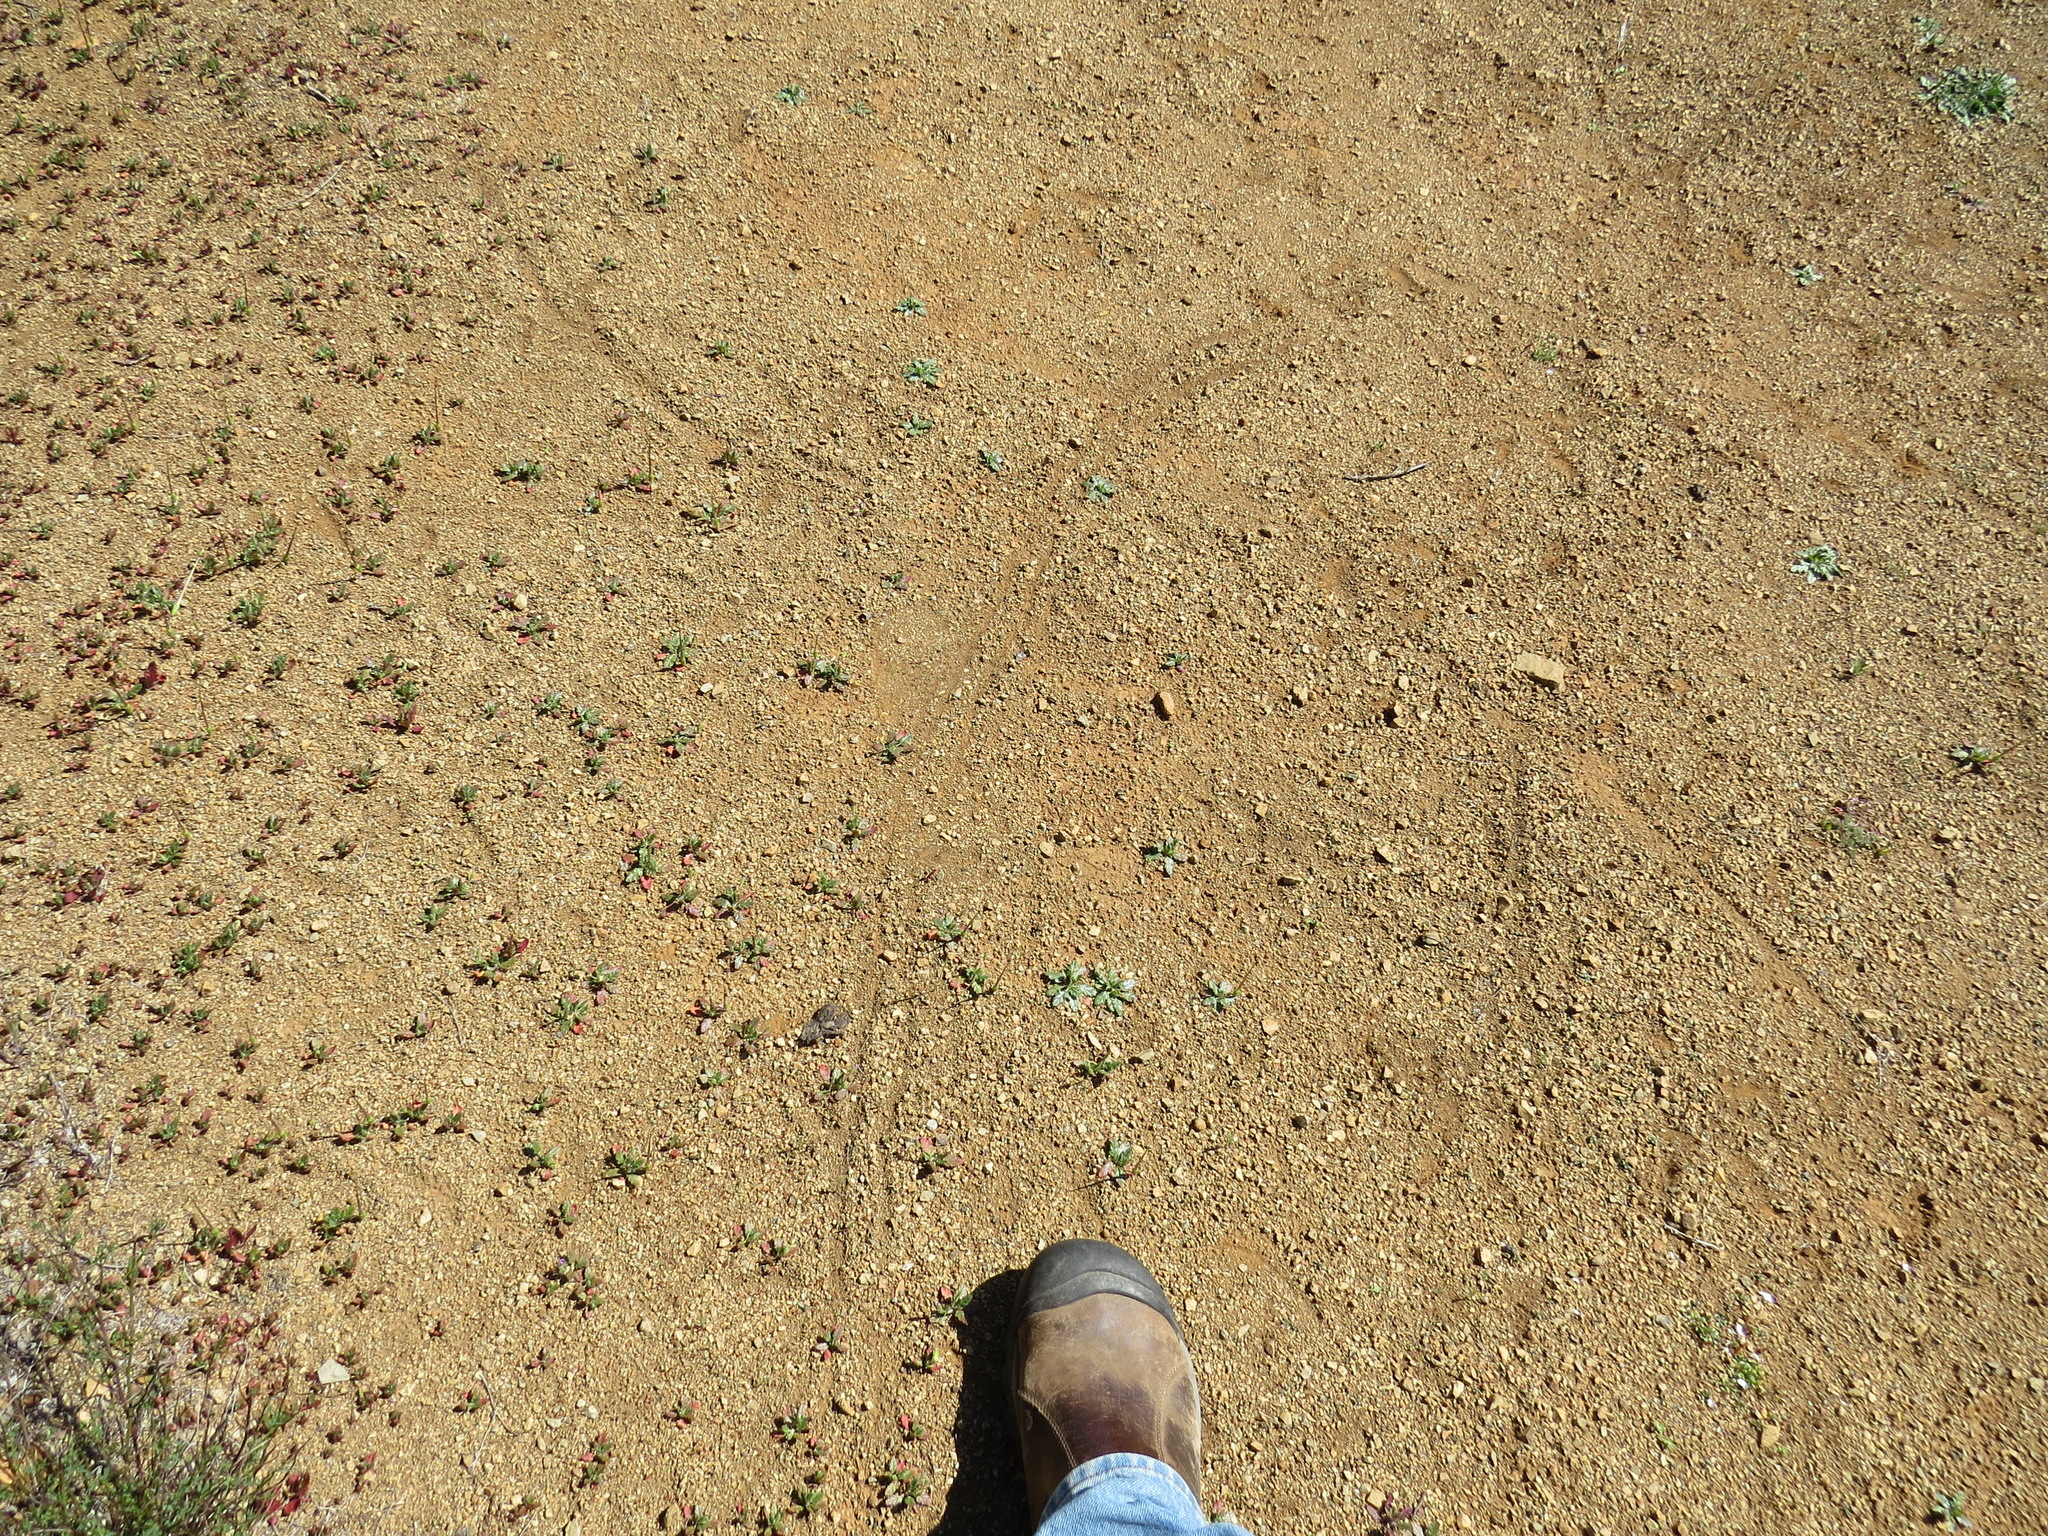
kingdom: Animalia
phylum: Chordata
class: Aves
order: Galliformes
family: Phasianidae
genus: Meleagris
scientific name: Meleagris gallopavo
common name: Wild turkey
